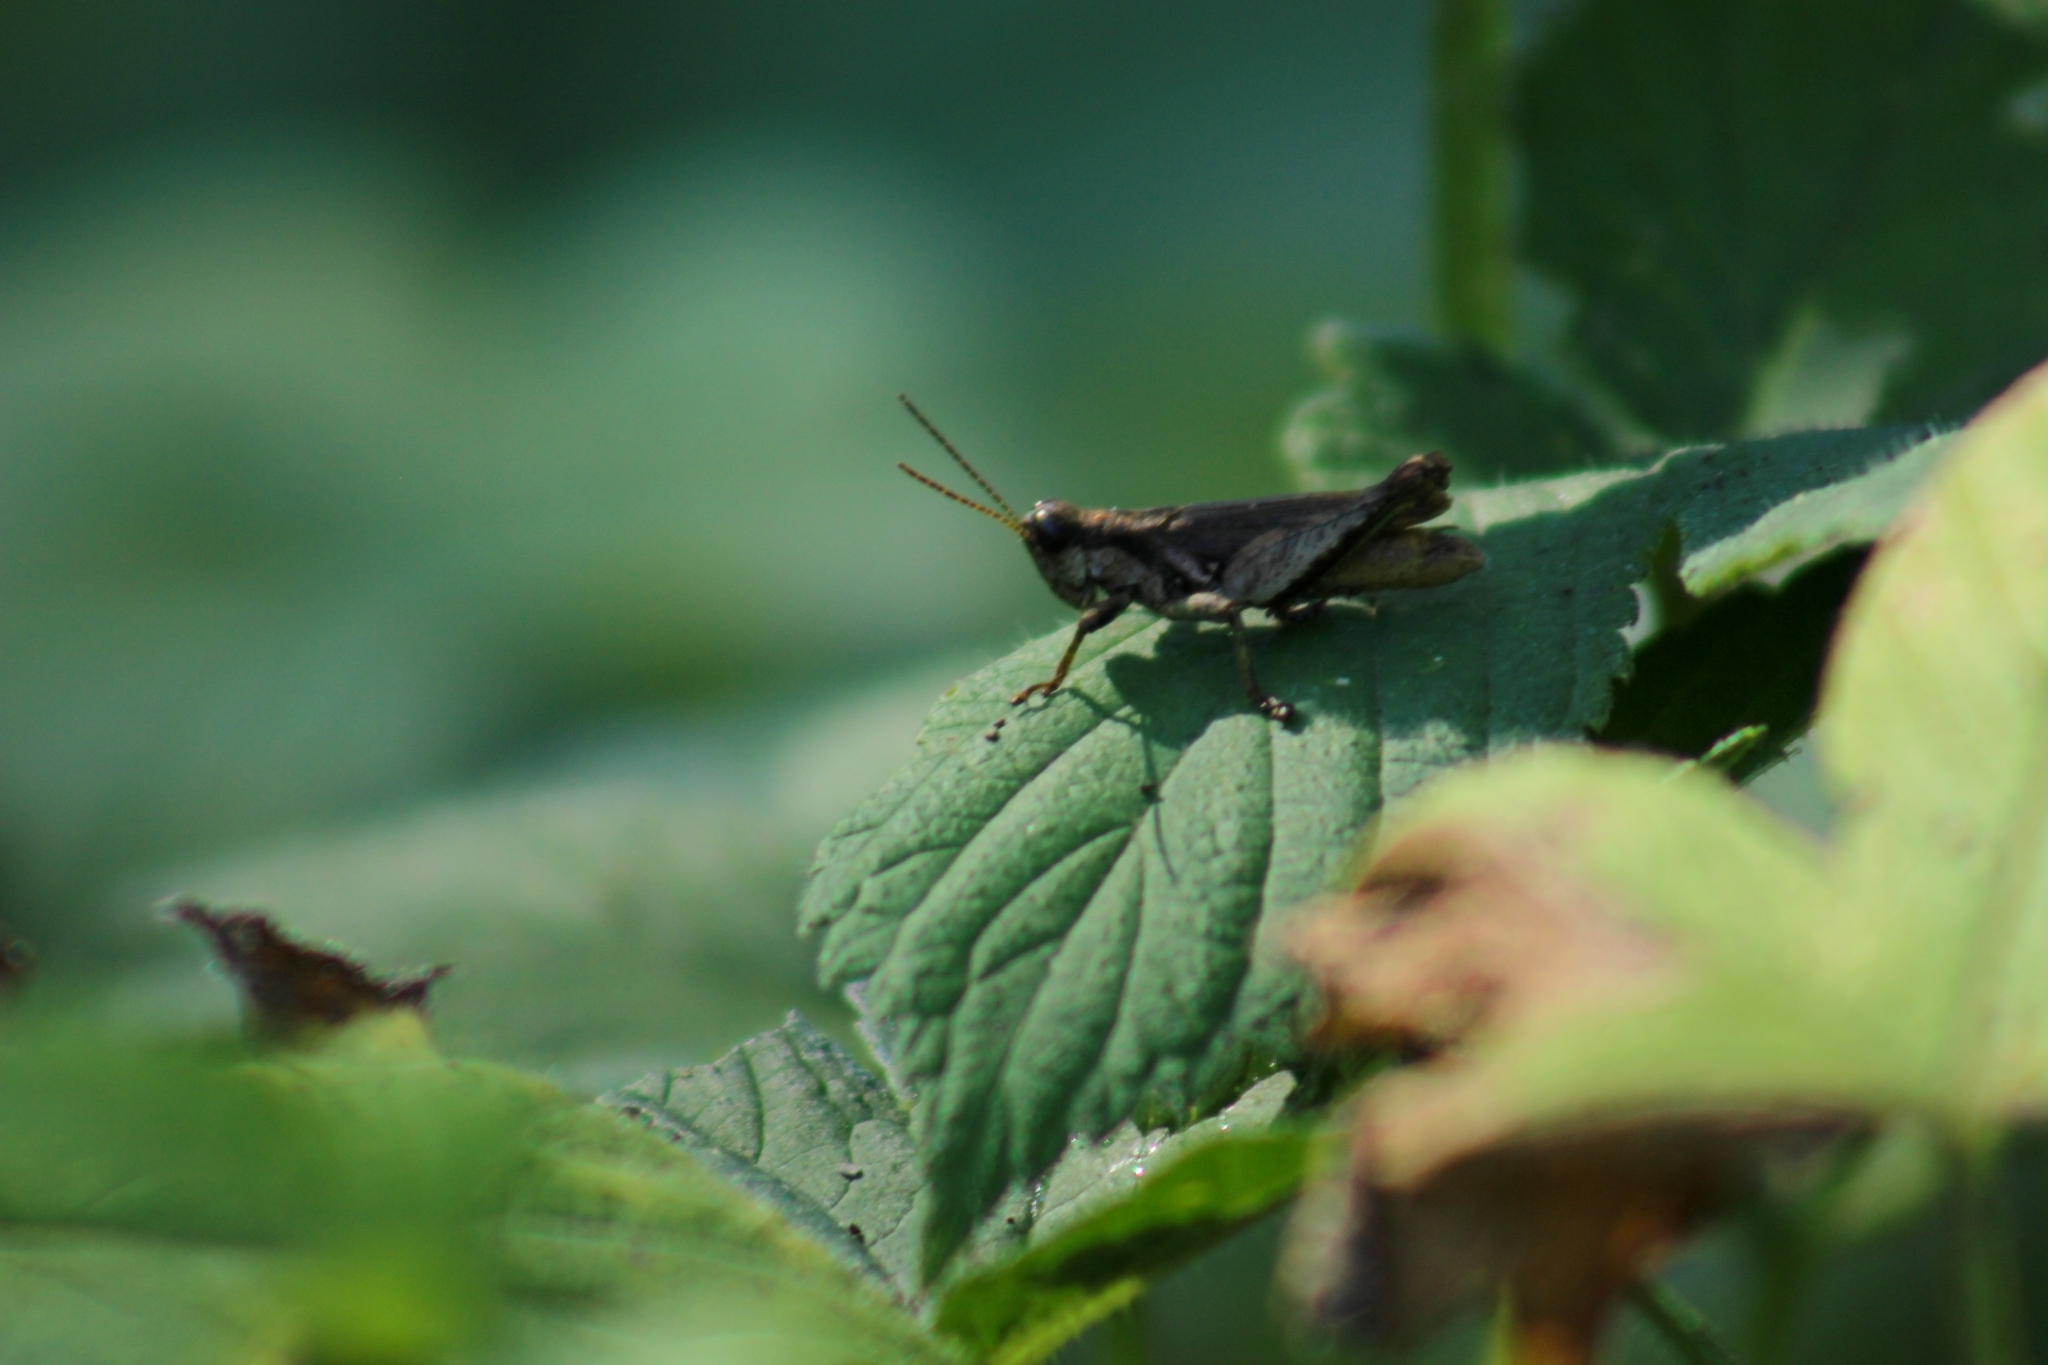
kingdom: Animalia
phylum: Arthropoda
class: Insecta
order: Orthoptera
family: Acrididae
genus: Ronderosia
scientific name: Ronderosia bergii
